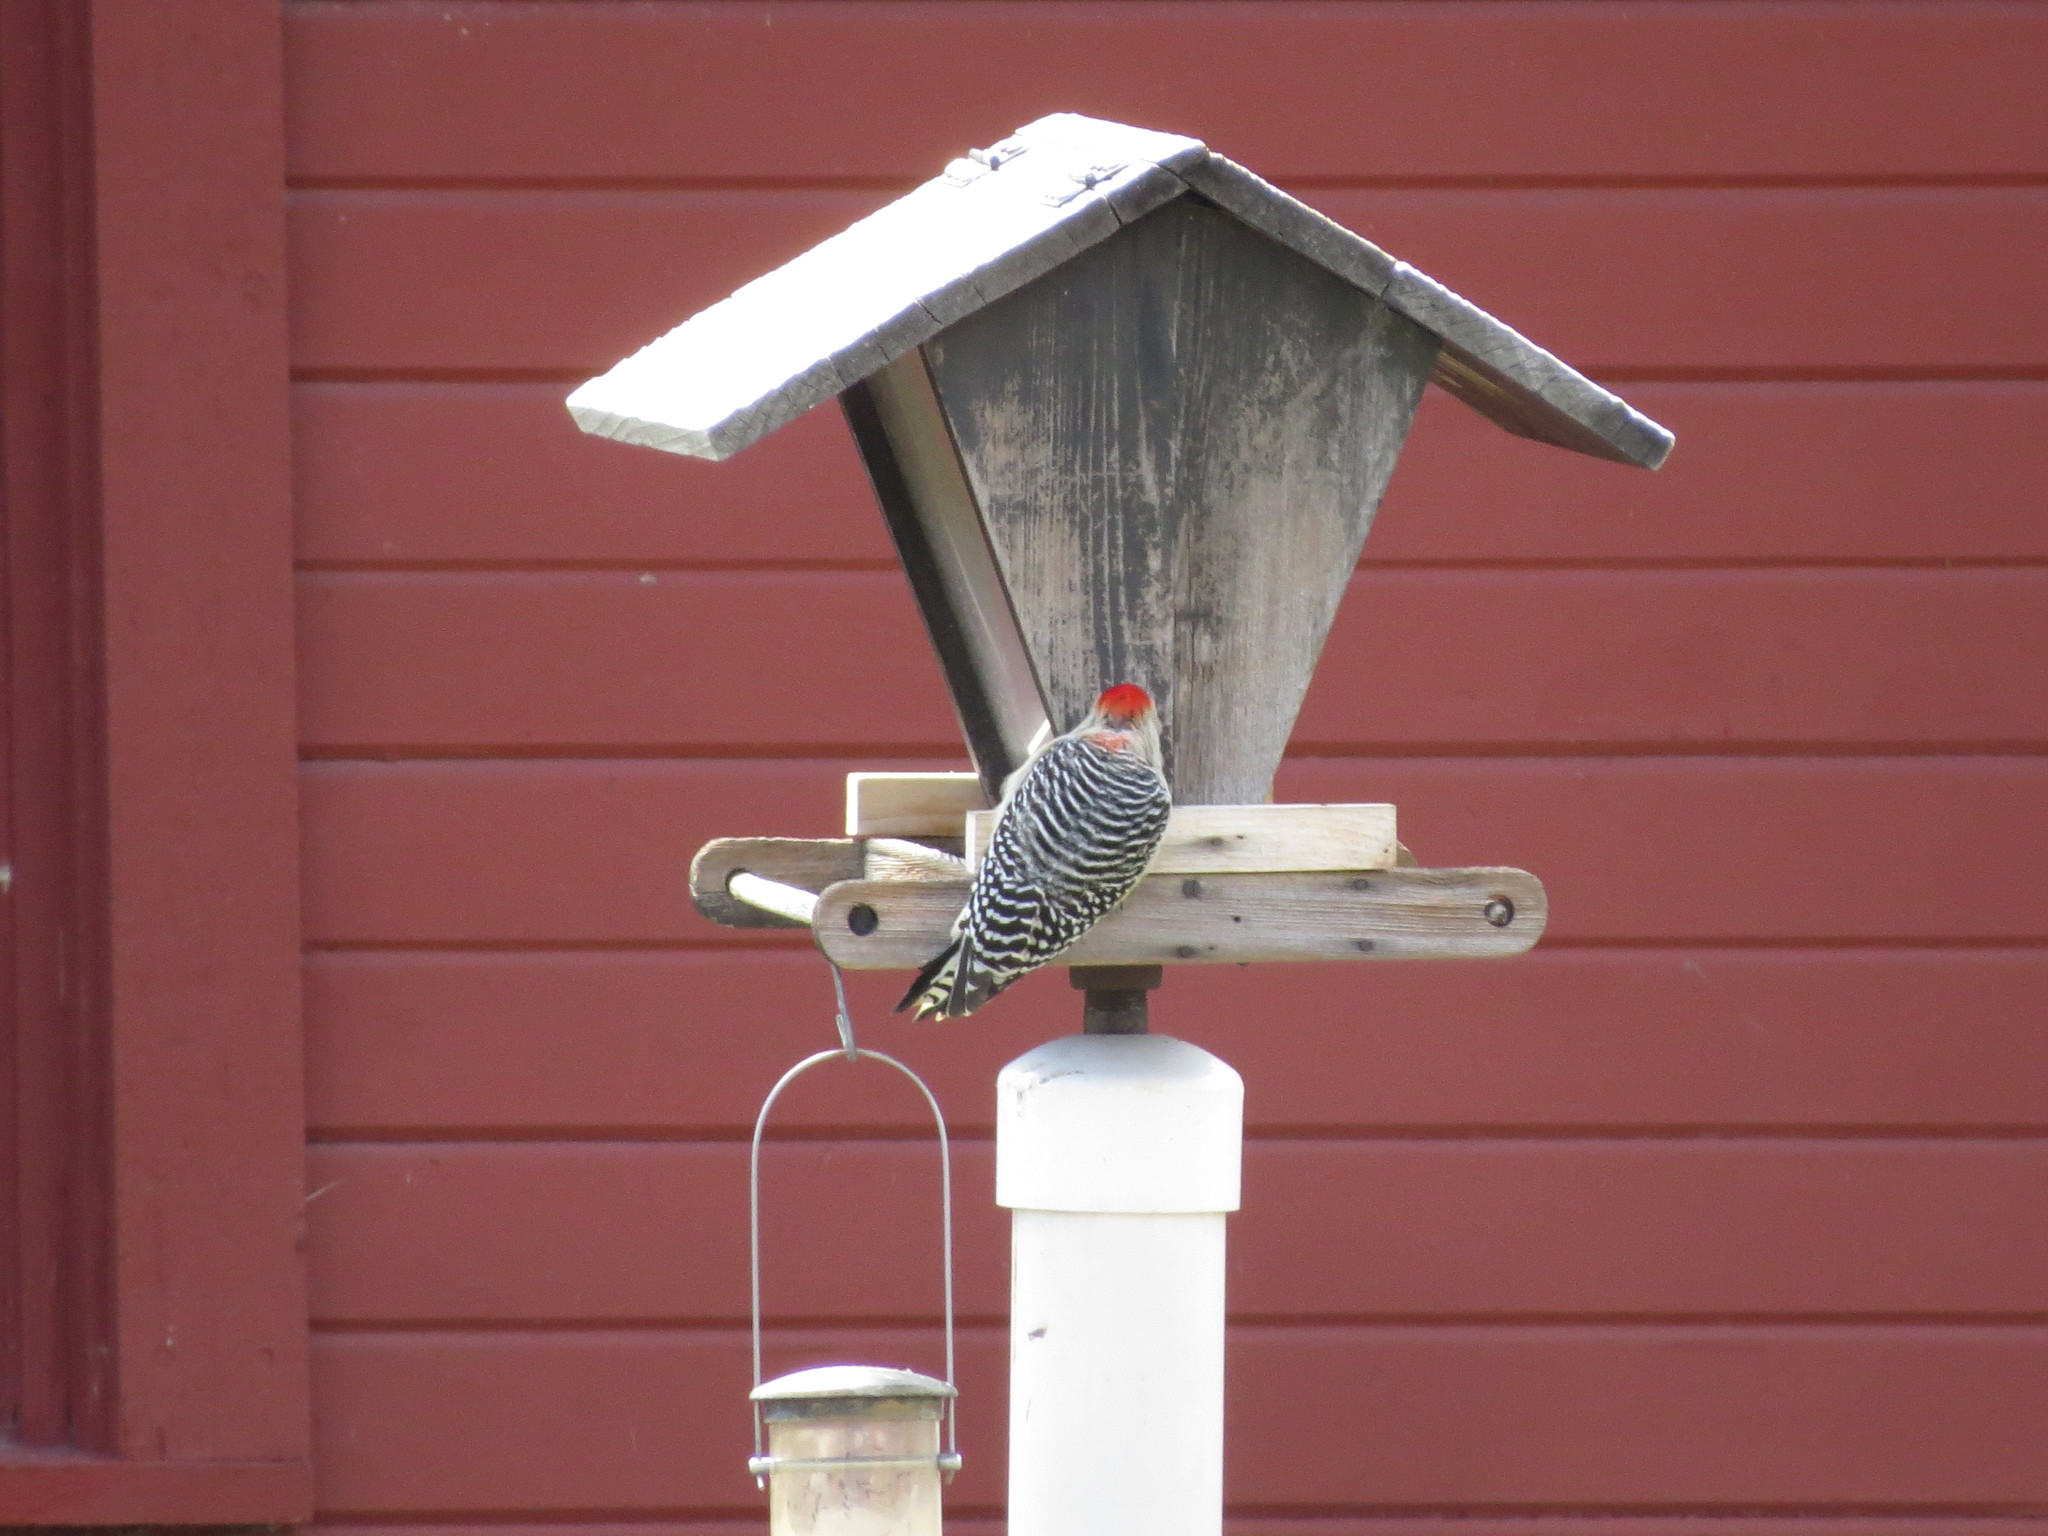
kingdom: Animalia
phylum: Chordata
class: Aves
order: Piciformes
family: Picidae
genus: Melanerpes
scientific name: Melanerpes carolinus
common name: Red-bellied woodpecker
